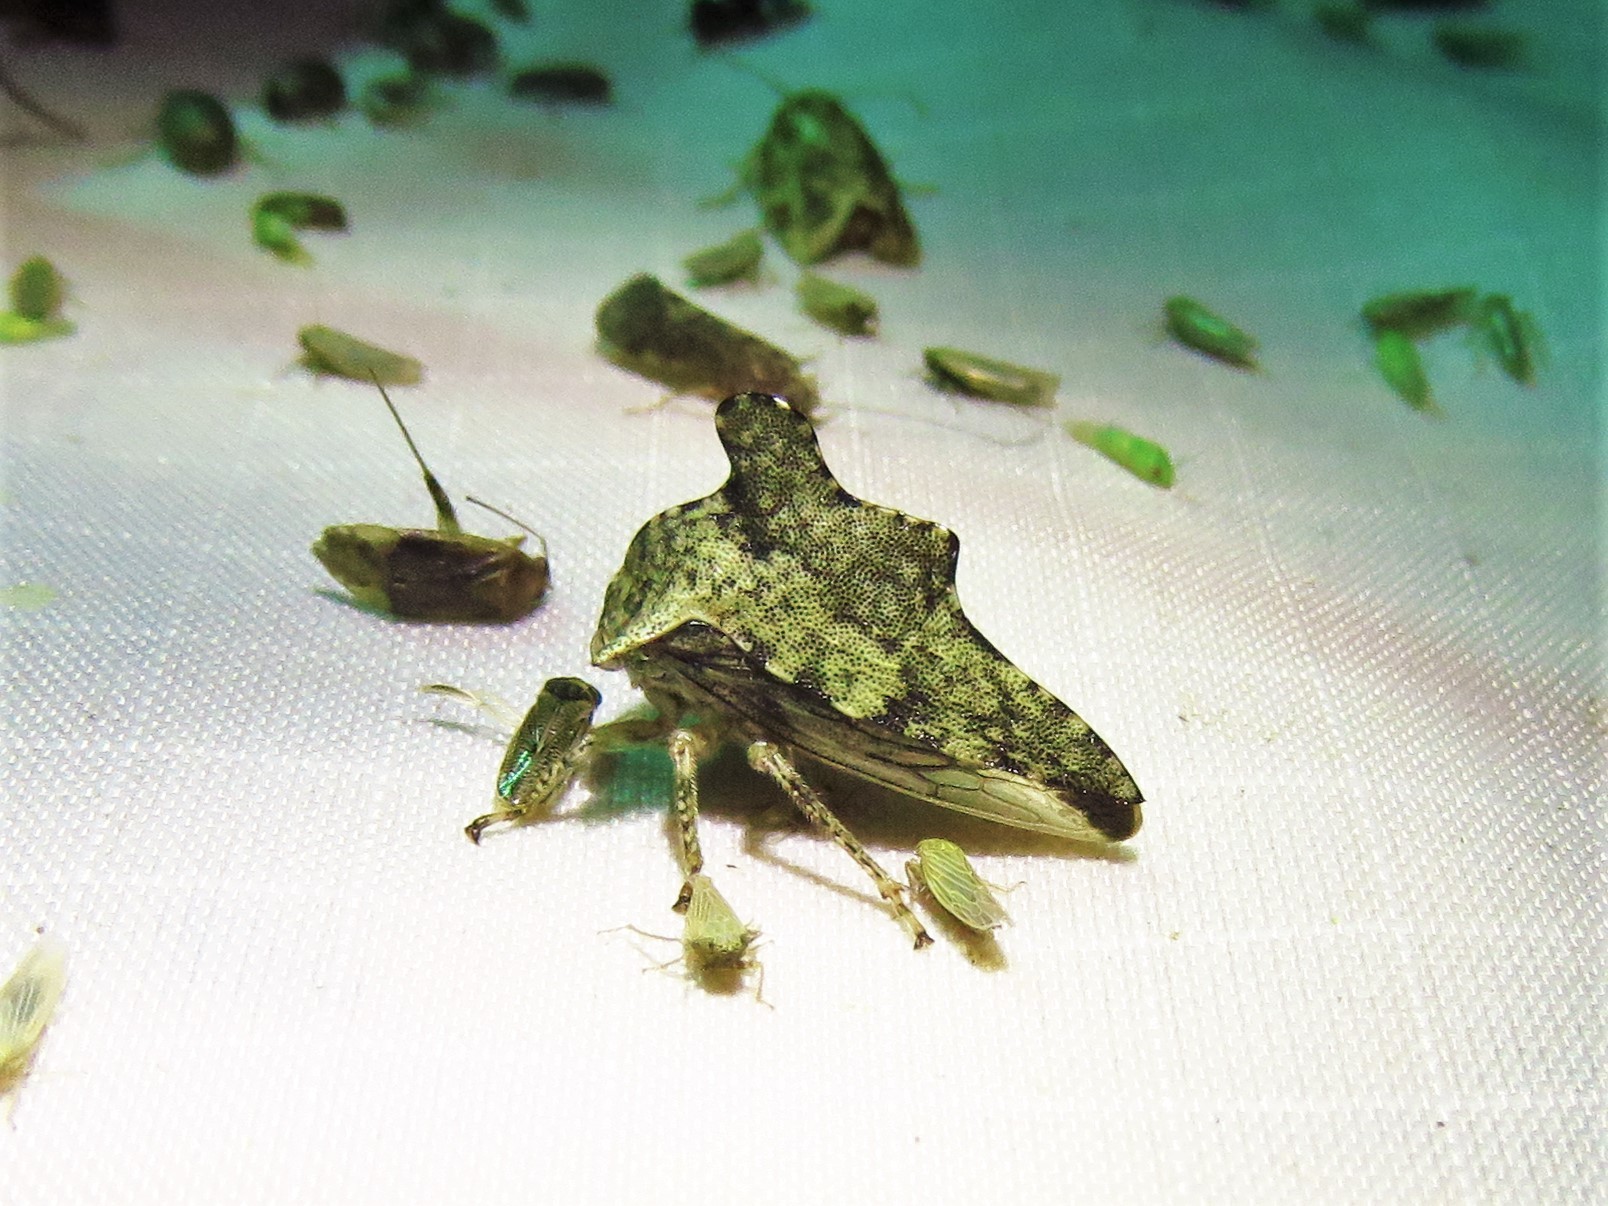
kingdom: Animalia
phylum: Arthropoda
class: Insecta
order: Hemiptera
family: Membracidae
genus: Heliria
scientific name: Heliria cristata
